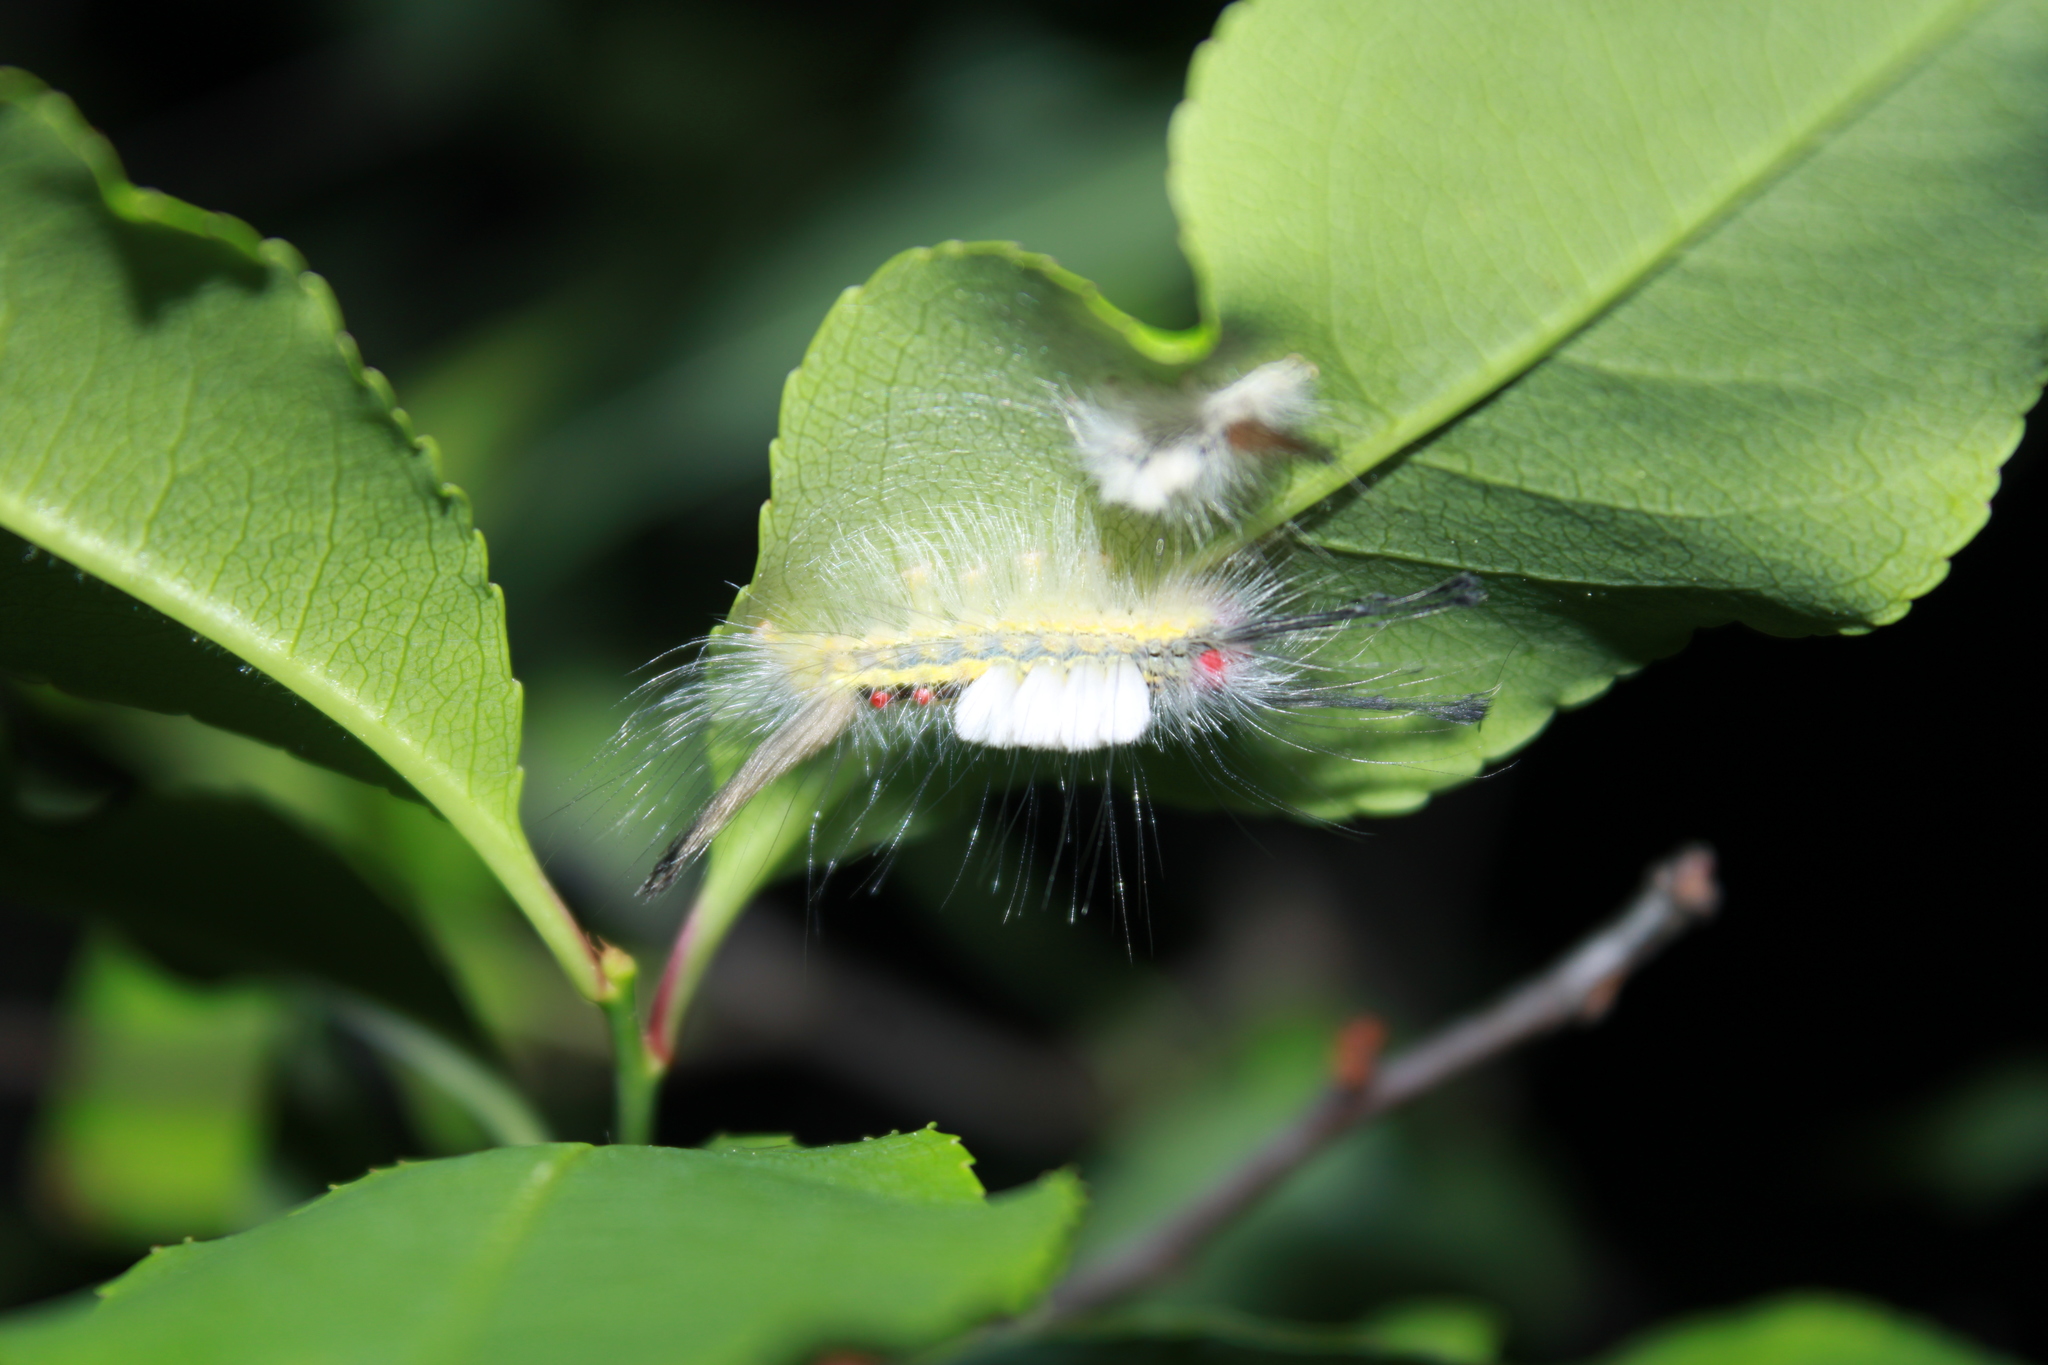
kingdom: Animalia
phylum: Arthropoda
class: Insecta
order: Lepidoptera
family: Erebidae
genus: Orgyia
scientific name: Orgyia leucostigma
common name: White-marked tussock moth
